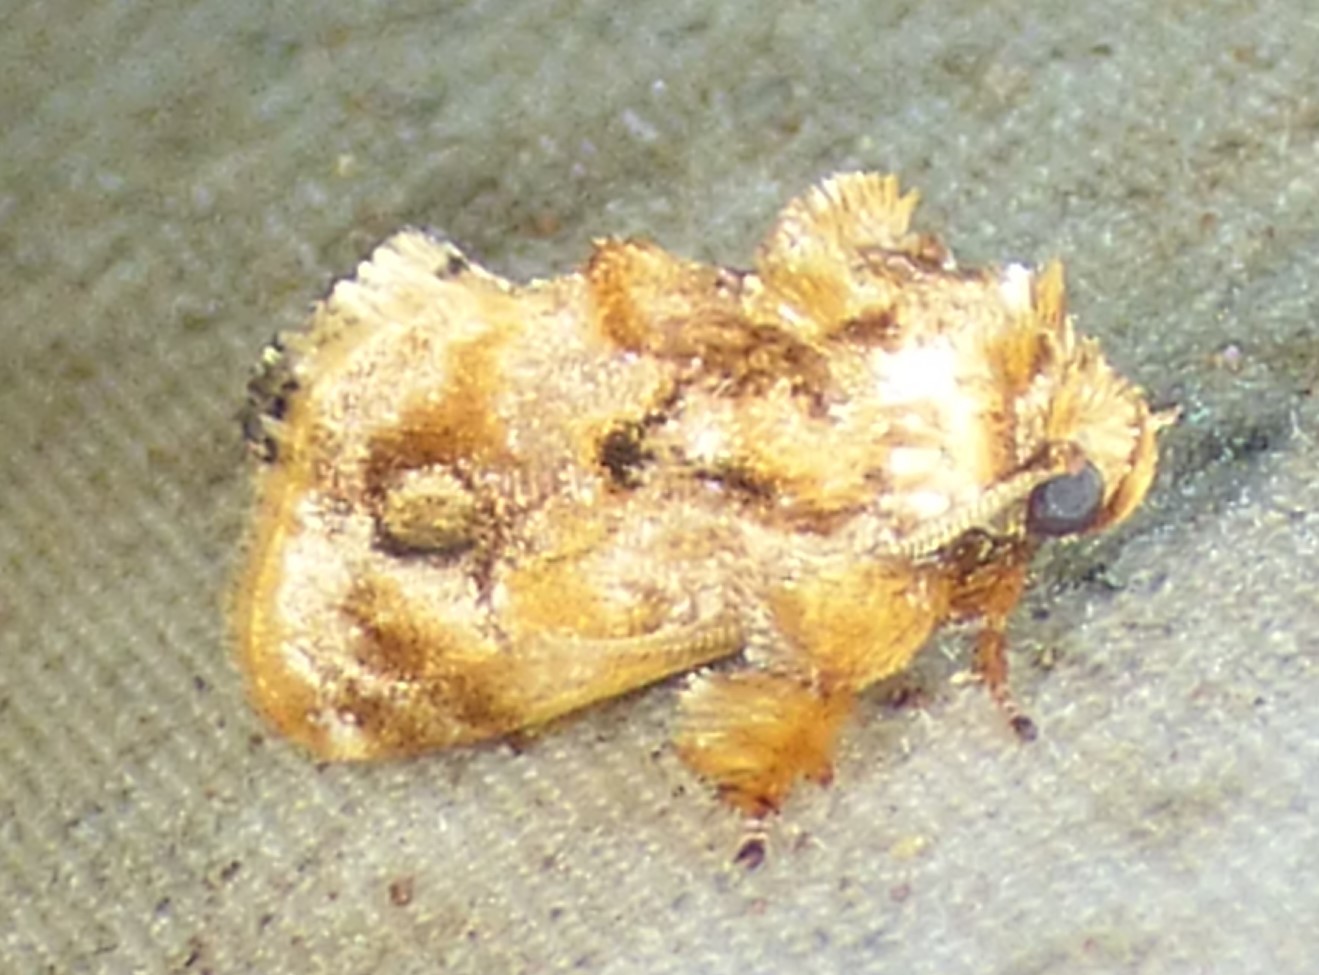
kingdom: Animalia
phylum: Arthropoda
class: Insecta
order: Lepidoptera
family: Limacodidae
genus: Isochaetes
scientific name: Isochaetes beutenmuelleri
